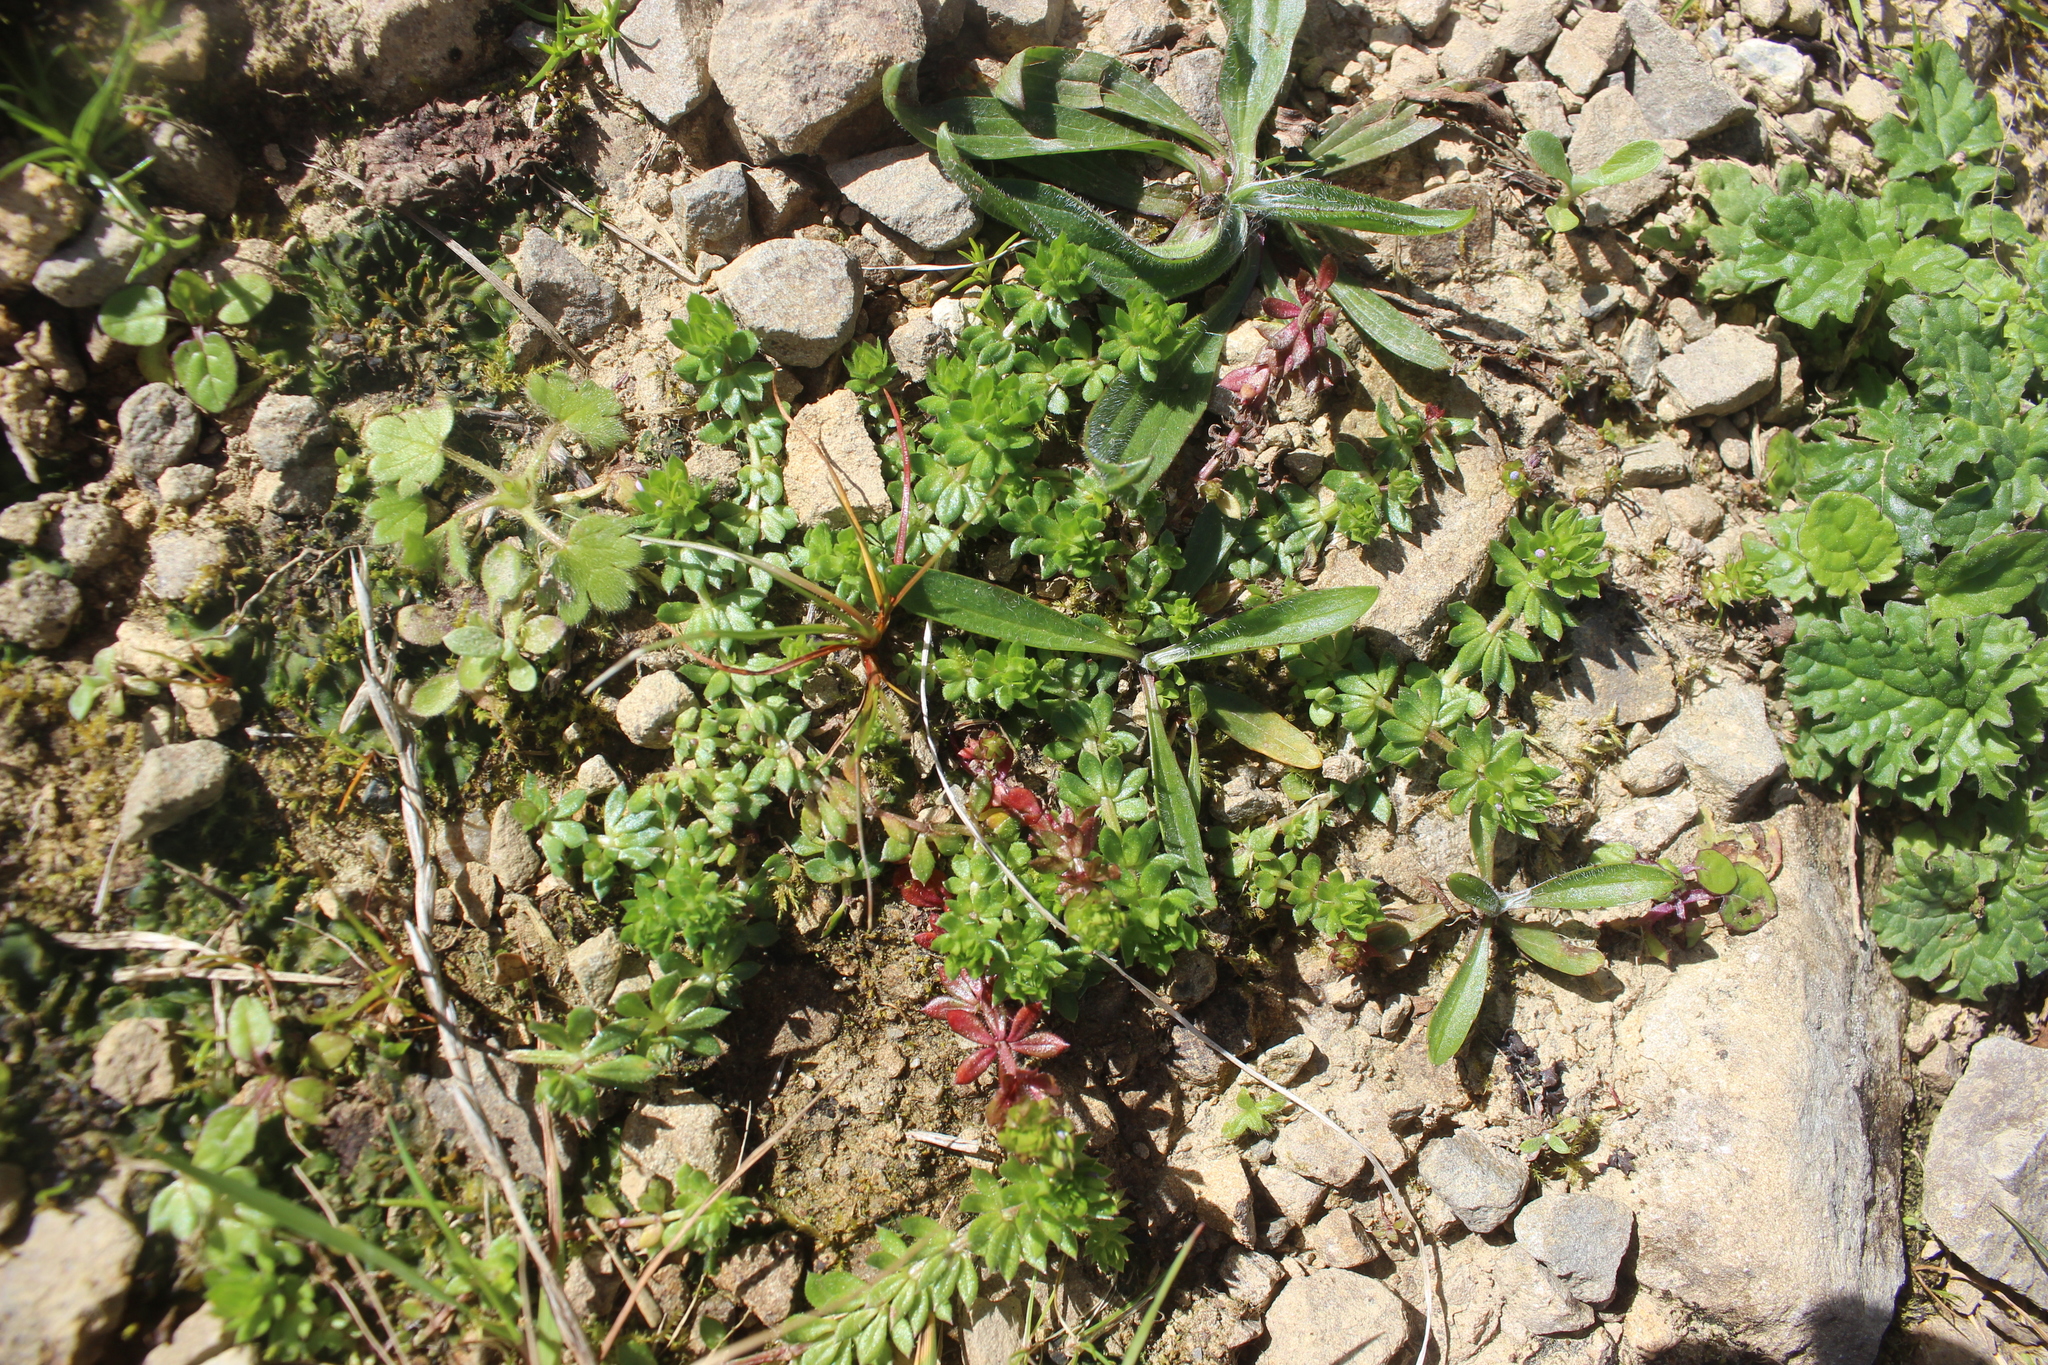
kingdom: Plantae
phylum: Tracheophyta
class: Magnoliopsida
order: Gentianales
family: Rubiaceae
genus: Sherardia
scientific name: Sherardia arvensis
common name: Field madder
